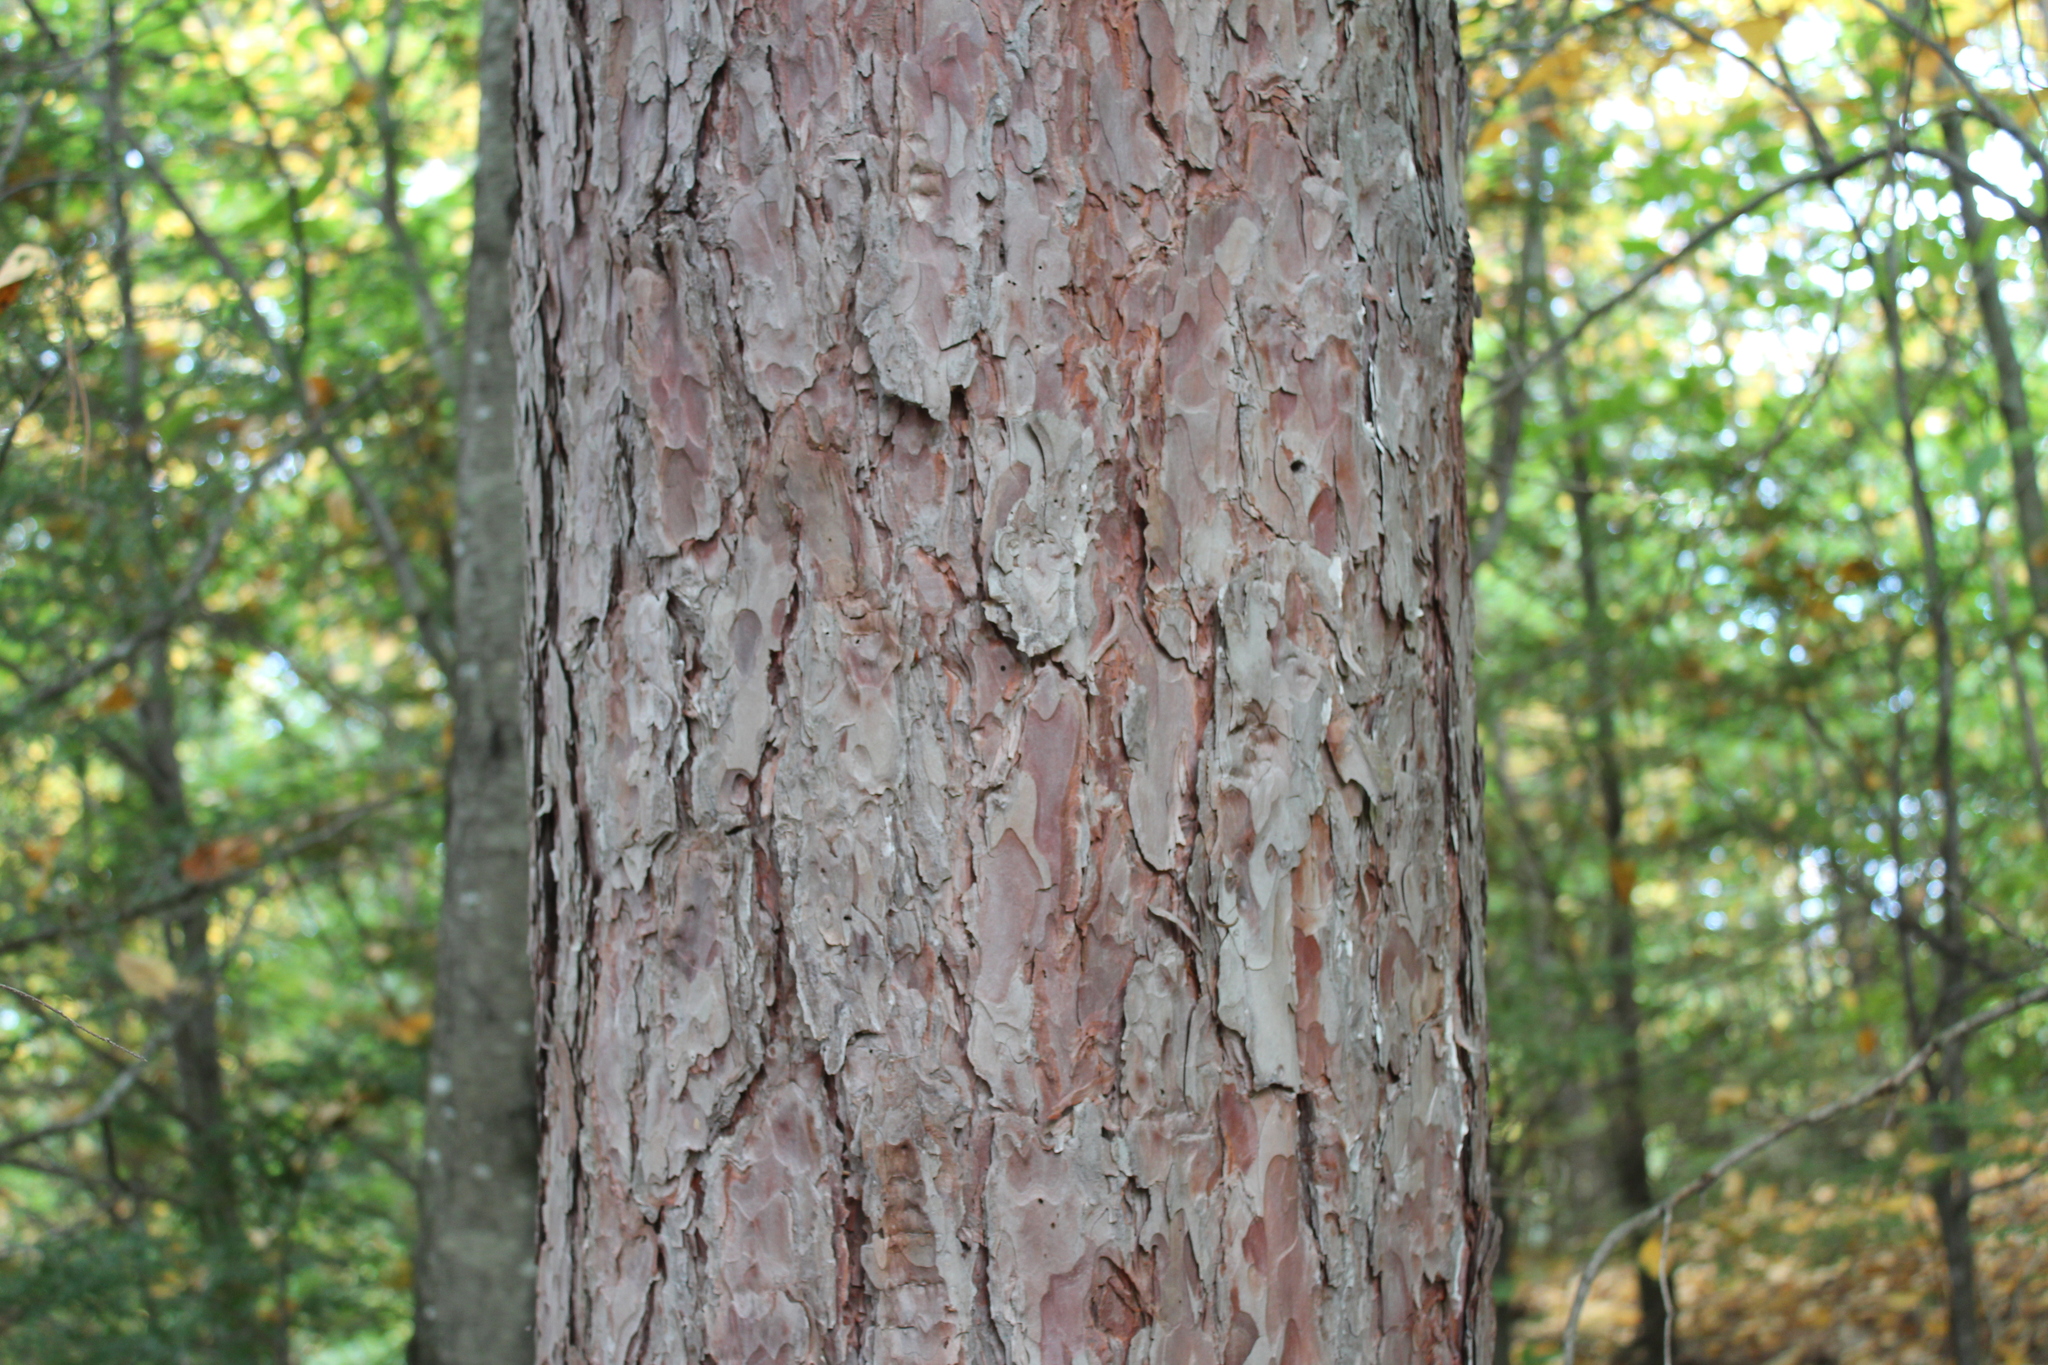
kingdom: Plantae
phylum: Tracheophyta
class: Pinopsida
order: Pinales
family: Pinaceae
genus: Pinus
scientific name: Pinus resinosa
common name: Norway pine
